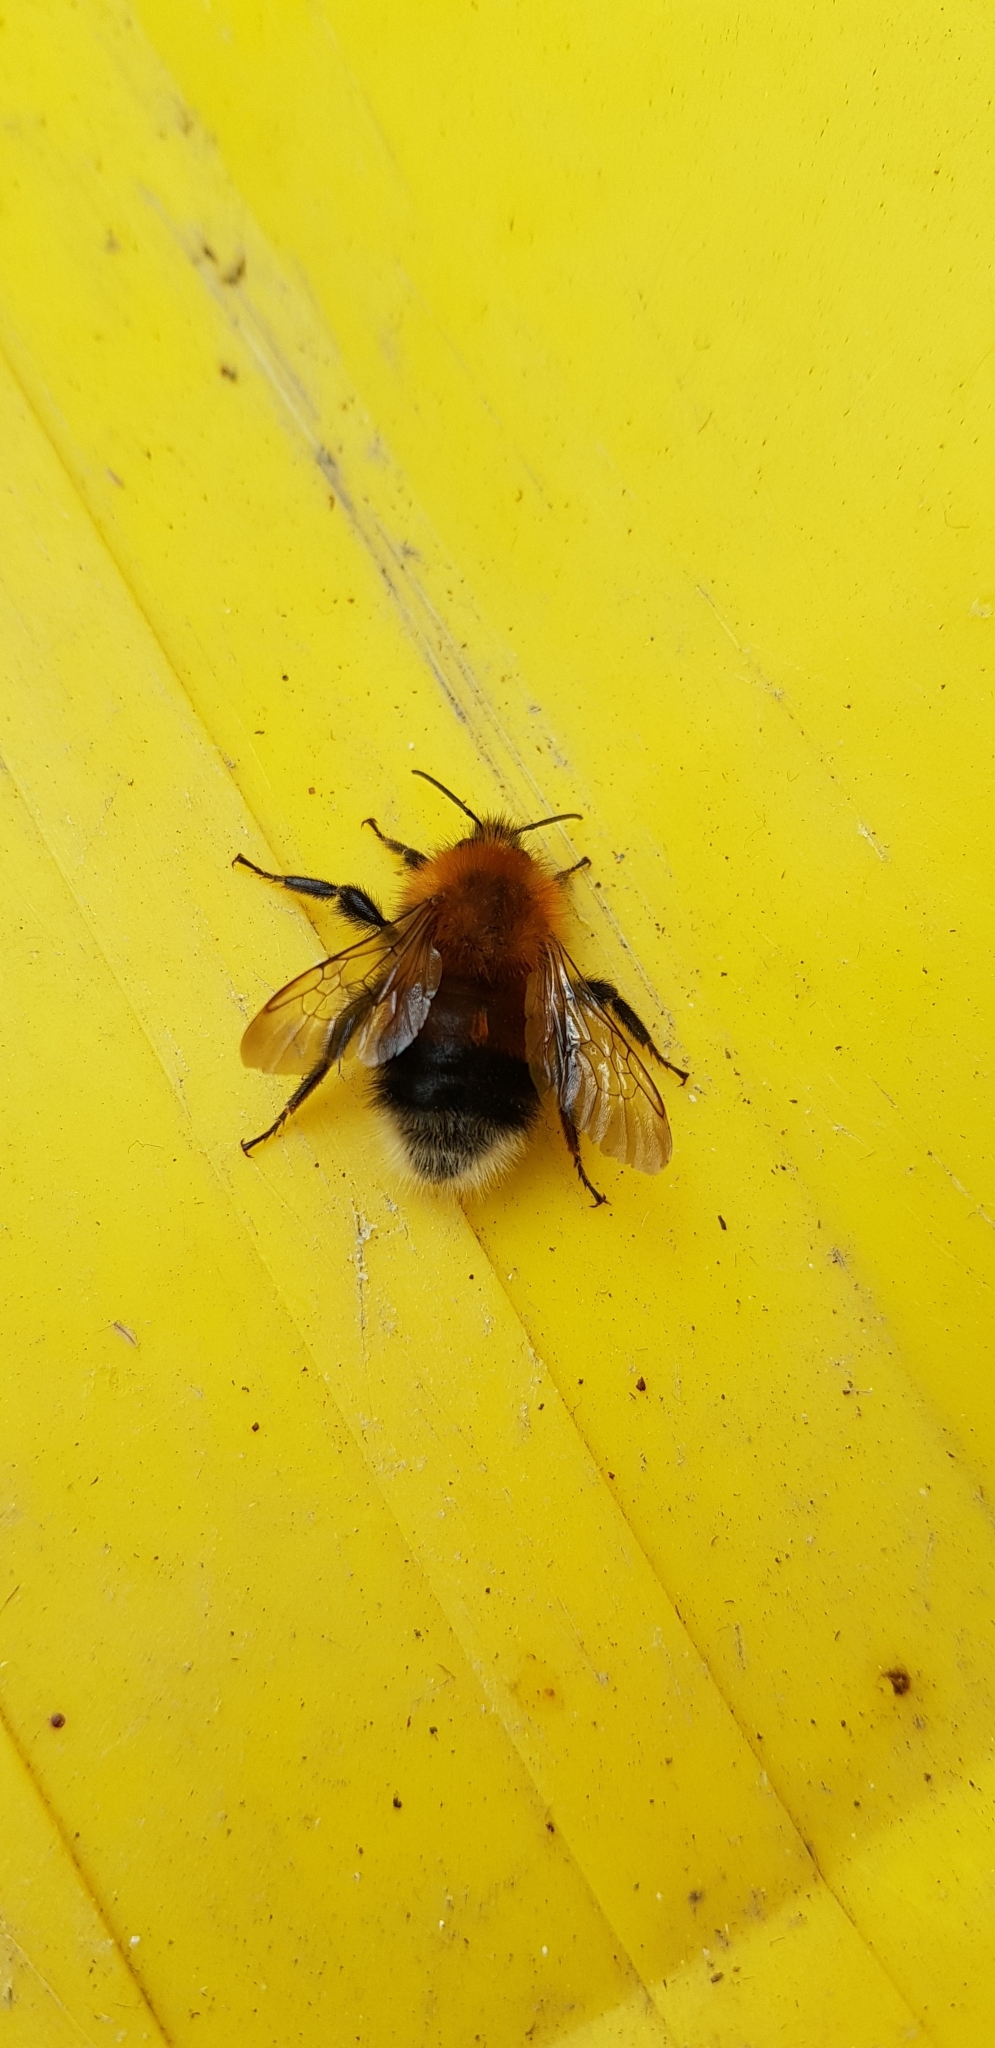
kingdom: Animalia
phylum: Arthropoda
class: Insecta
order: Hymenoptera
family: Apidae
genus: Bombus
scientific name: Bombus hypnorum
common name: New garden bumblebee
